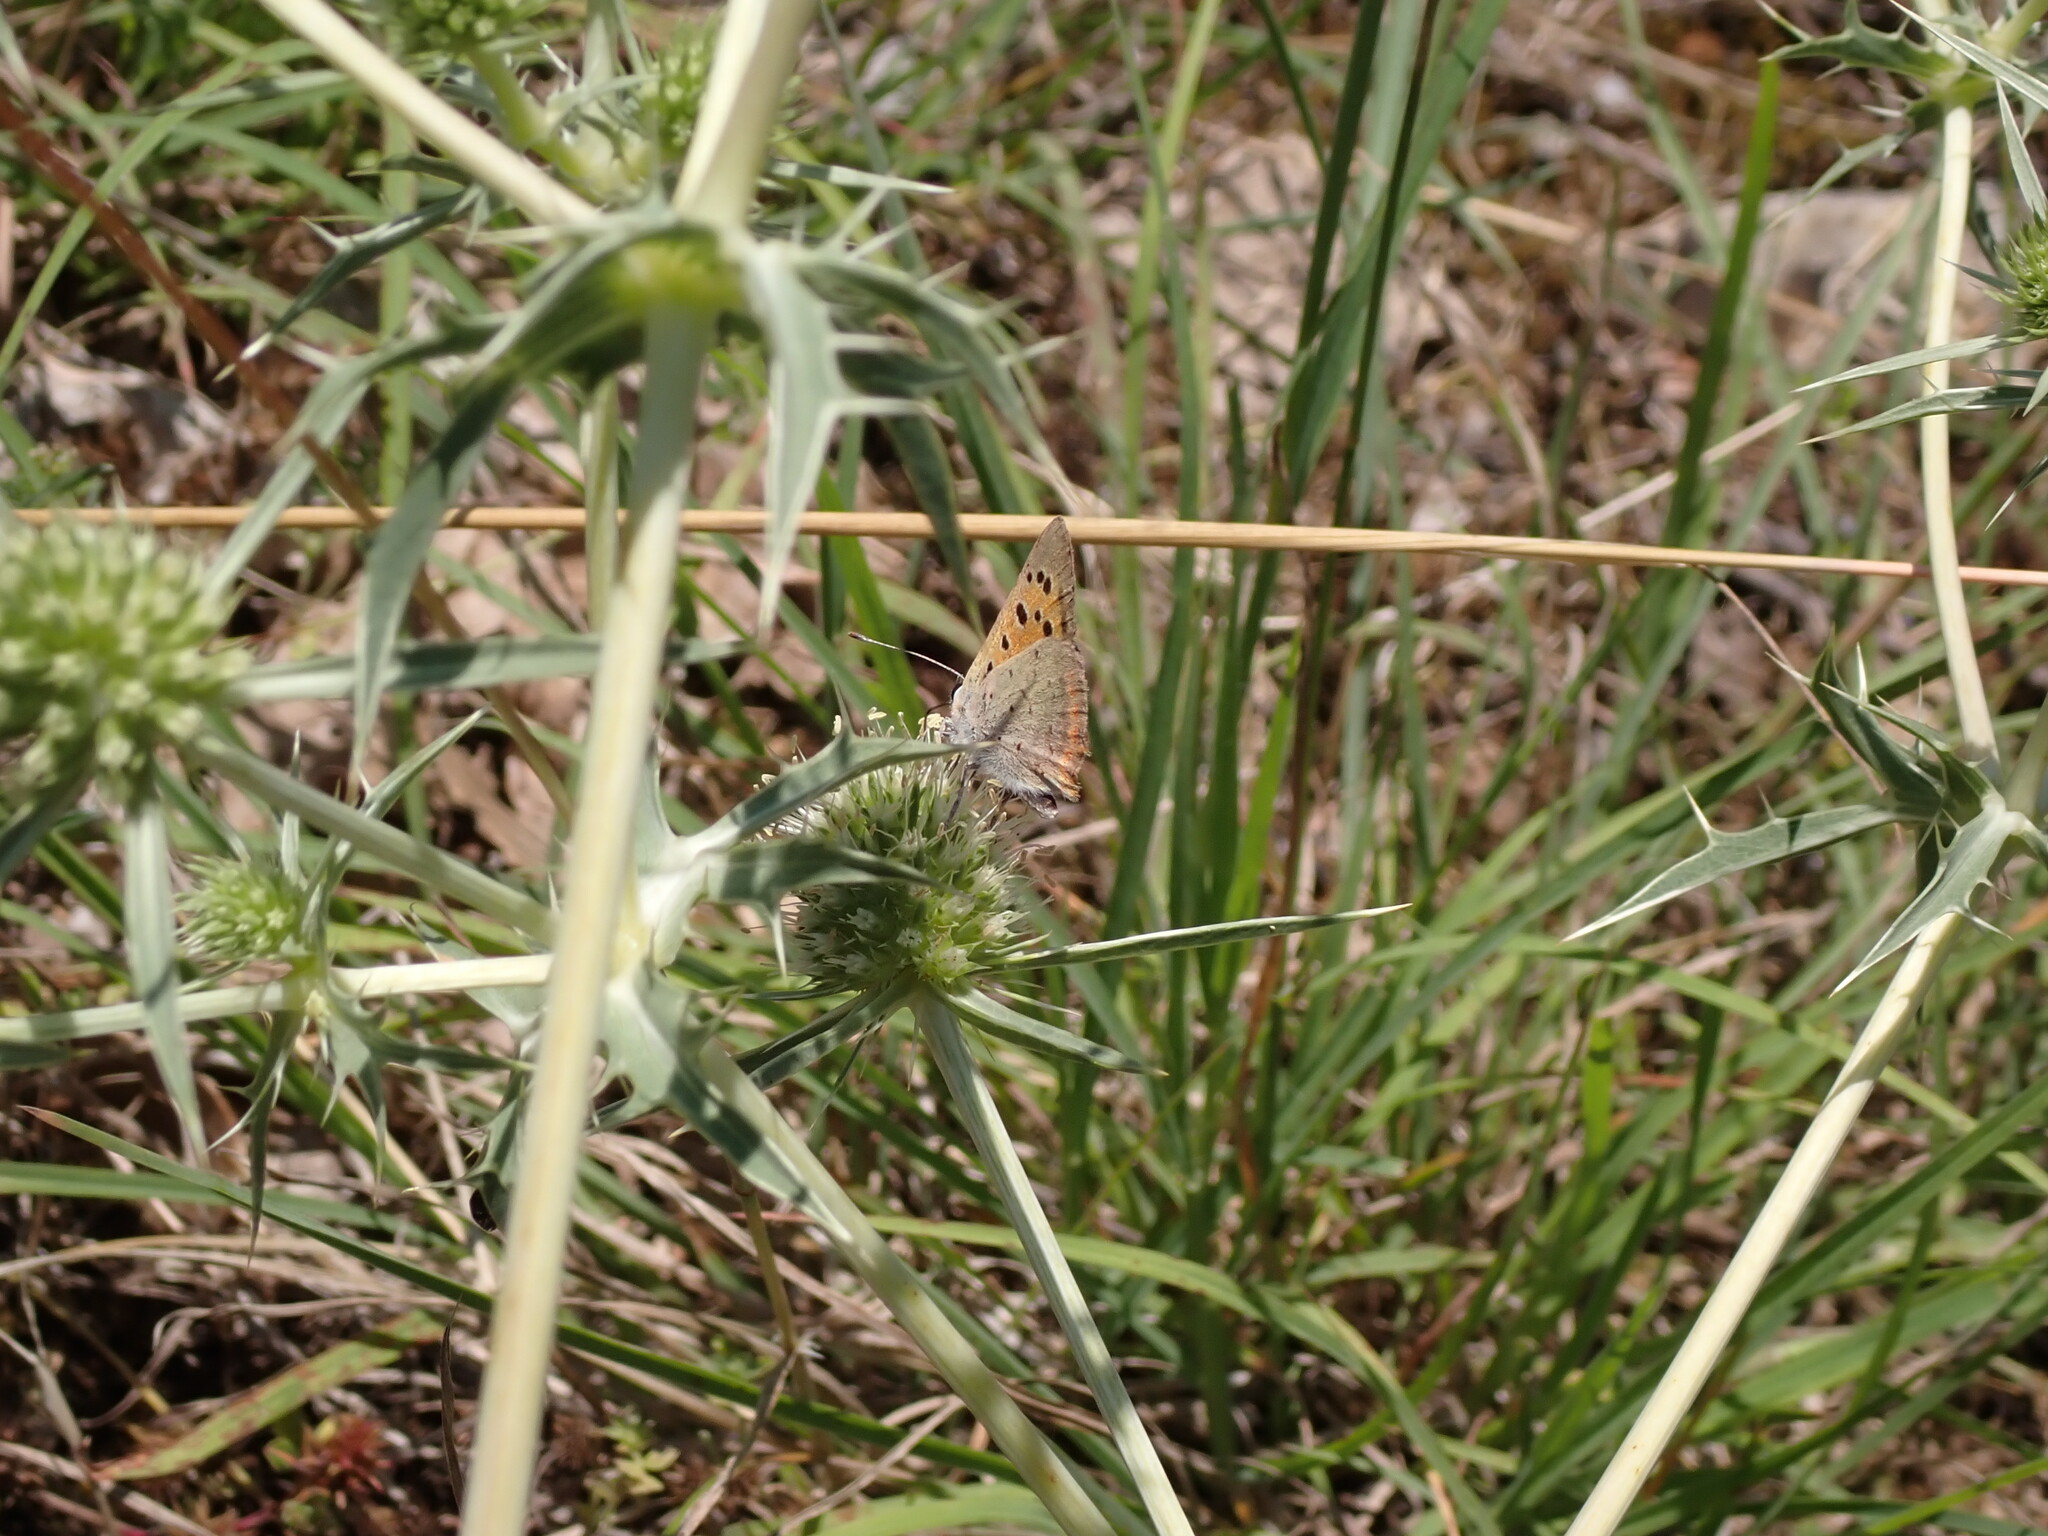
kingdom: Animalia
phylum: Arthropoda
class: Insecta
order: Lepidoptera
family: Lycaenidae
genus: Lycaena
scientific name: Lycaena phlaeas
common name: Small copper
